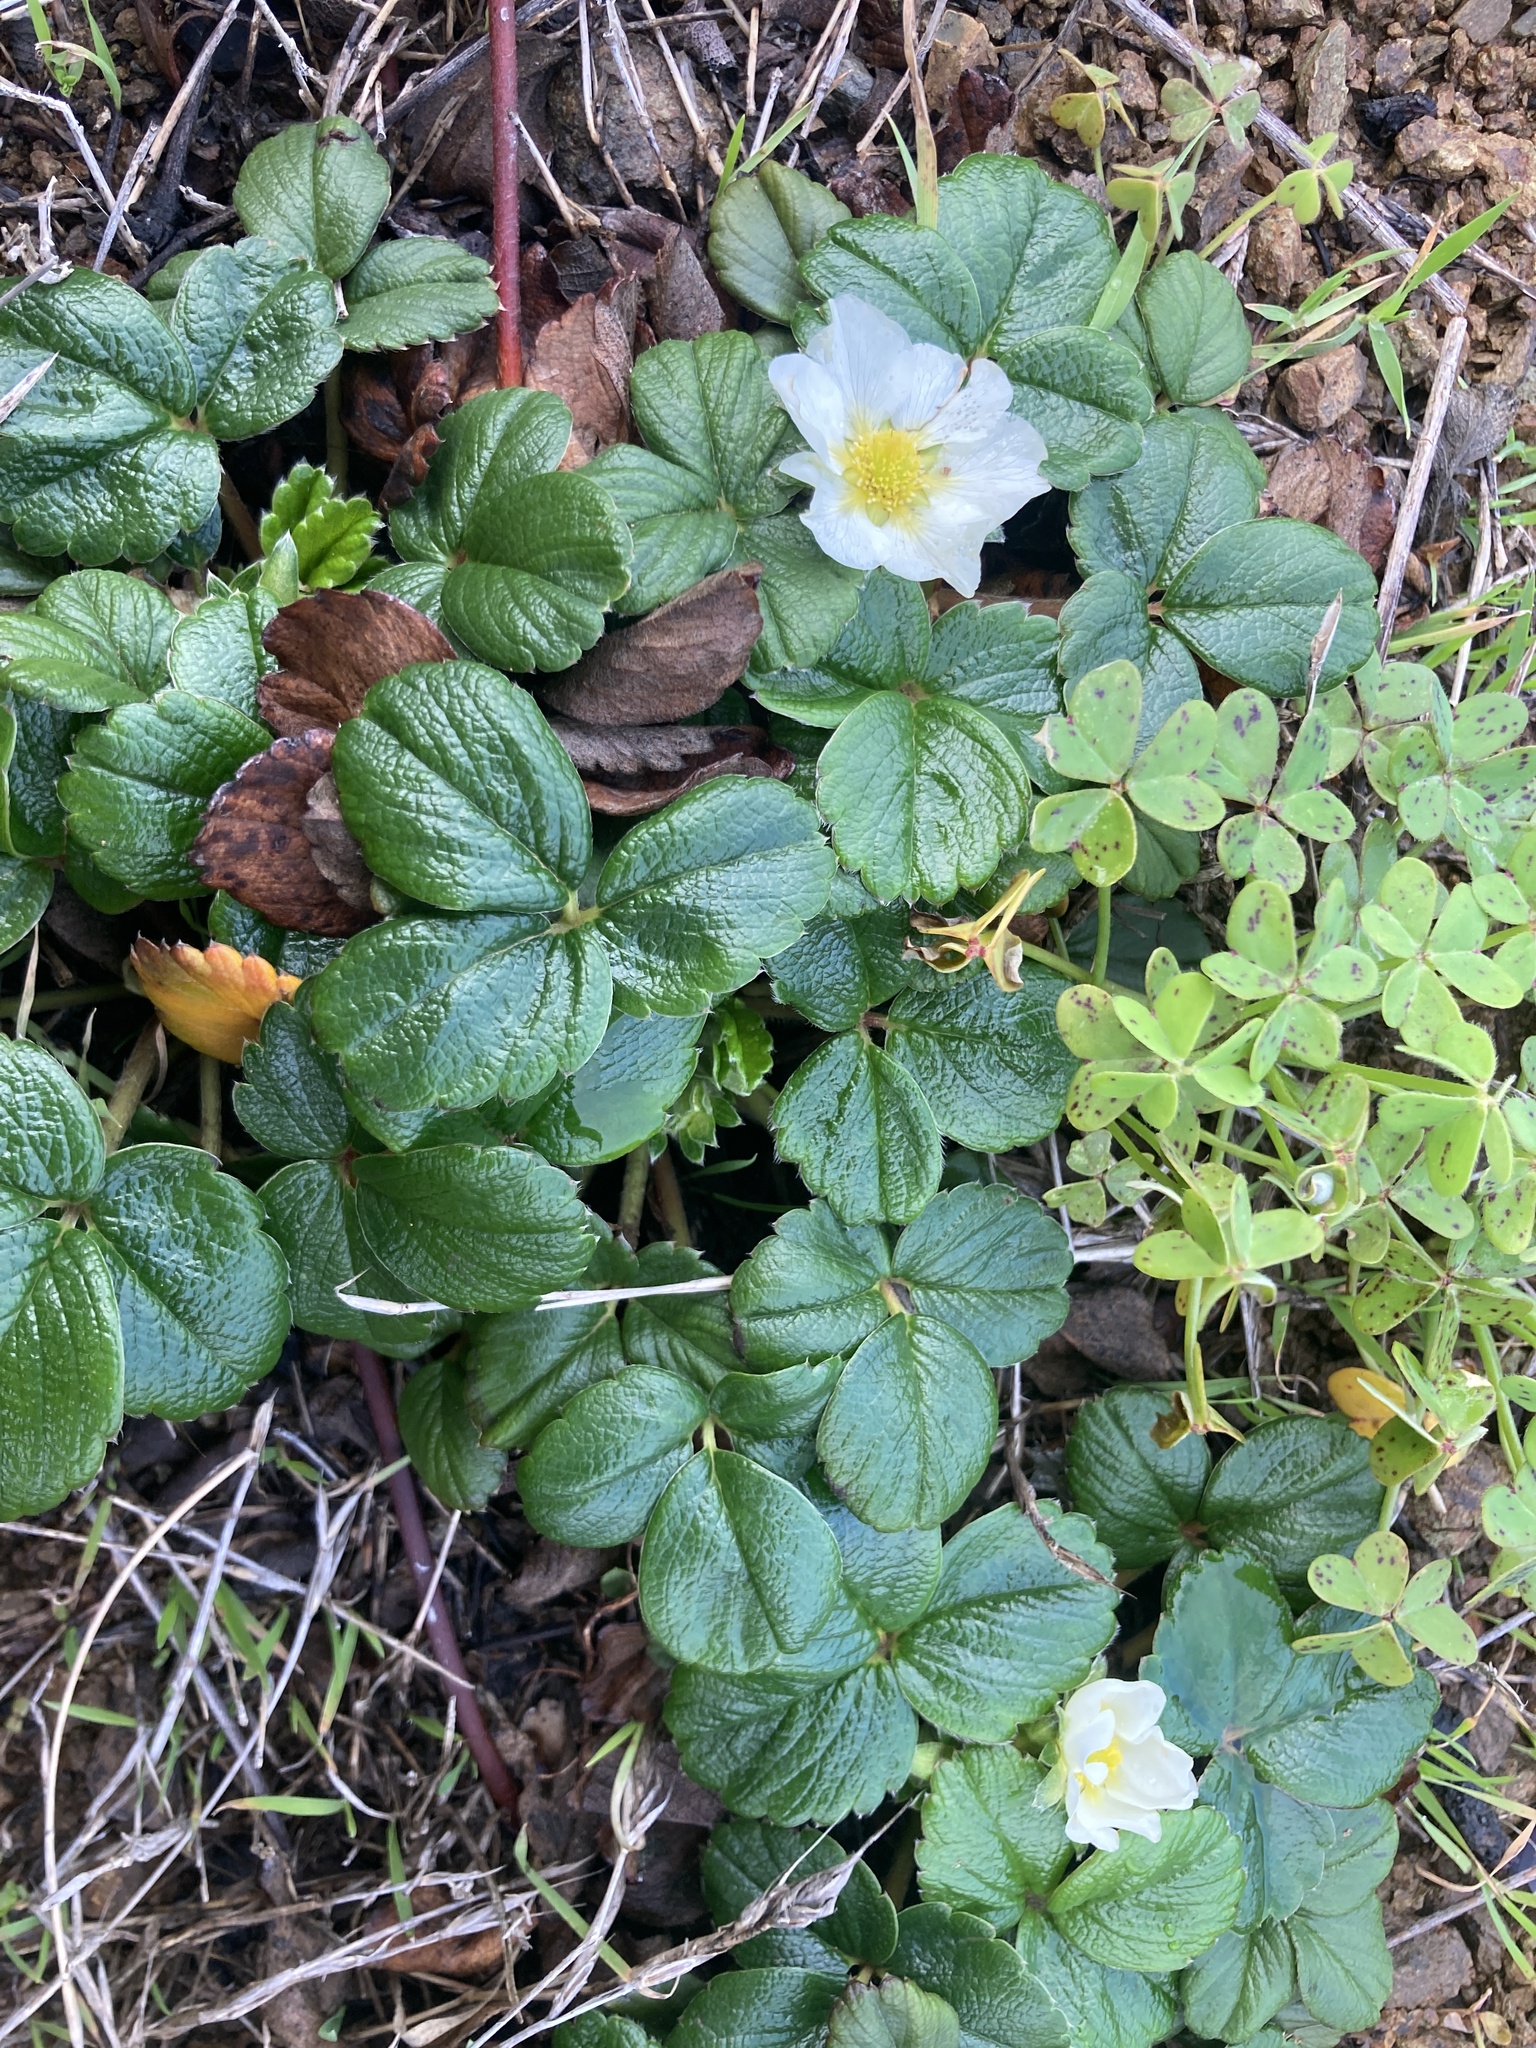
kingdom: Plantae
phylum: Tracheophyta
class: Magnoliopsida
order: Rosales
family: Rosaceae
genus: Fragaria
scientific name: Fragaria chiloensis
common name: Beach strawberry
